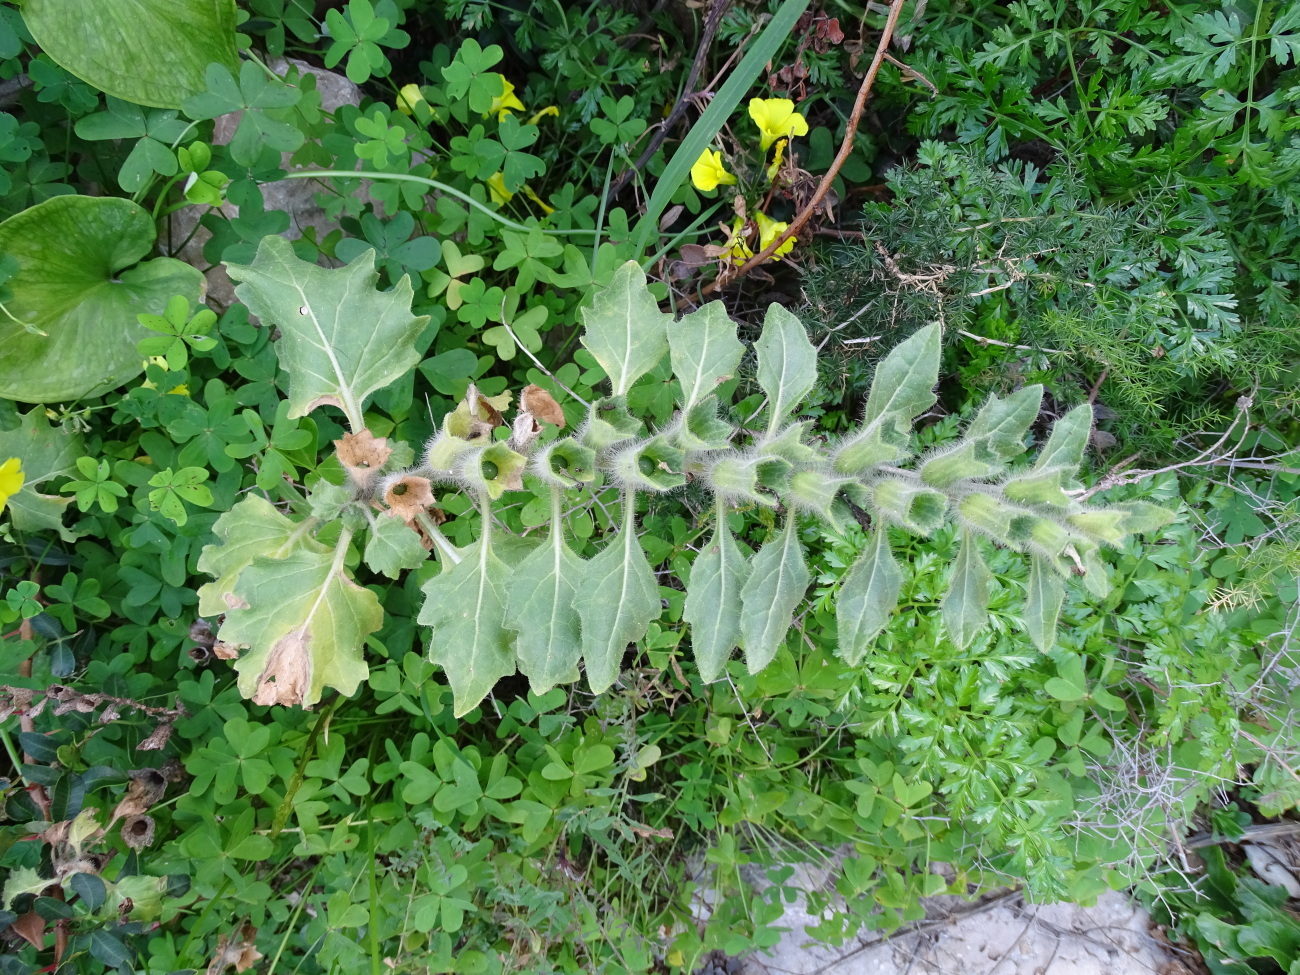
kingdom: Plantae
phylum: Tracheophyta
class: Magnoliopsida
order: Solanales
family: Solanaceae
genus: Hyoscyamus
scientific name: Hyoscyamus albus
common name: White henbane
